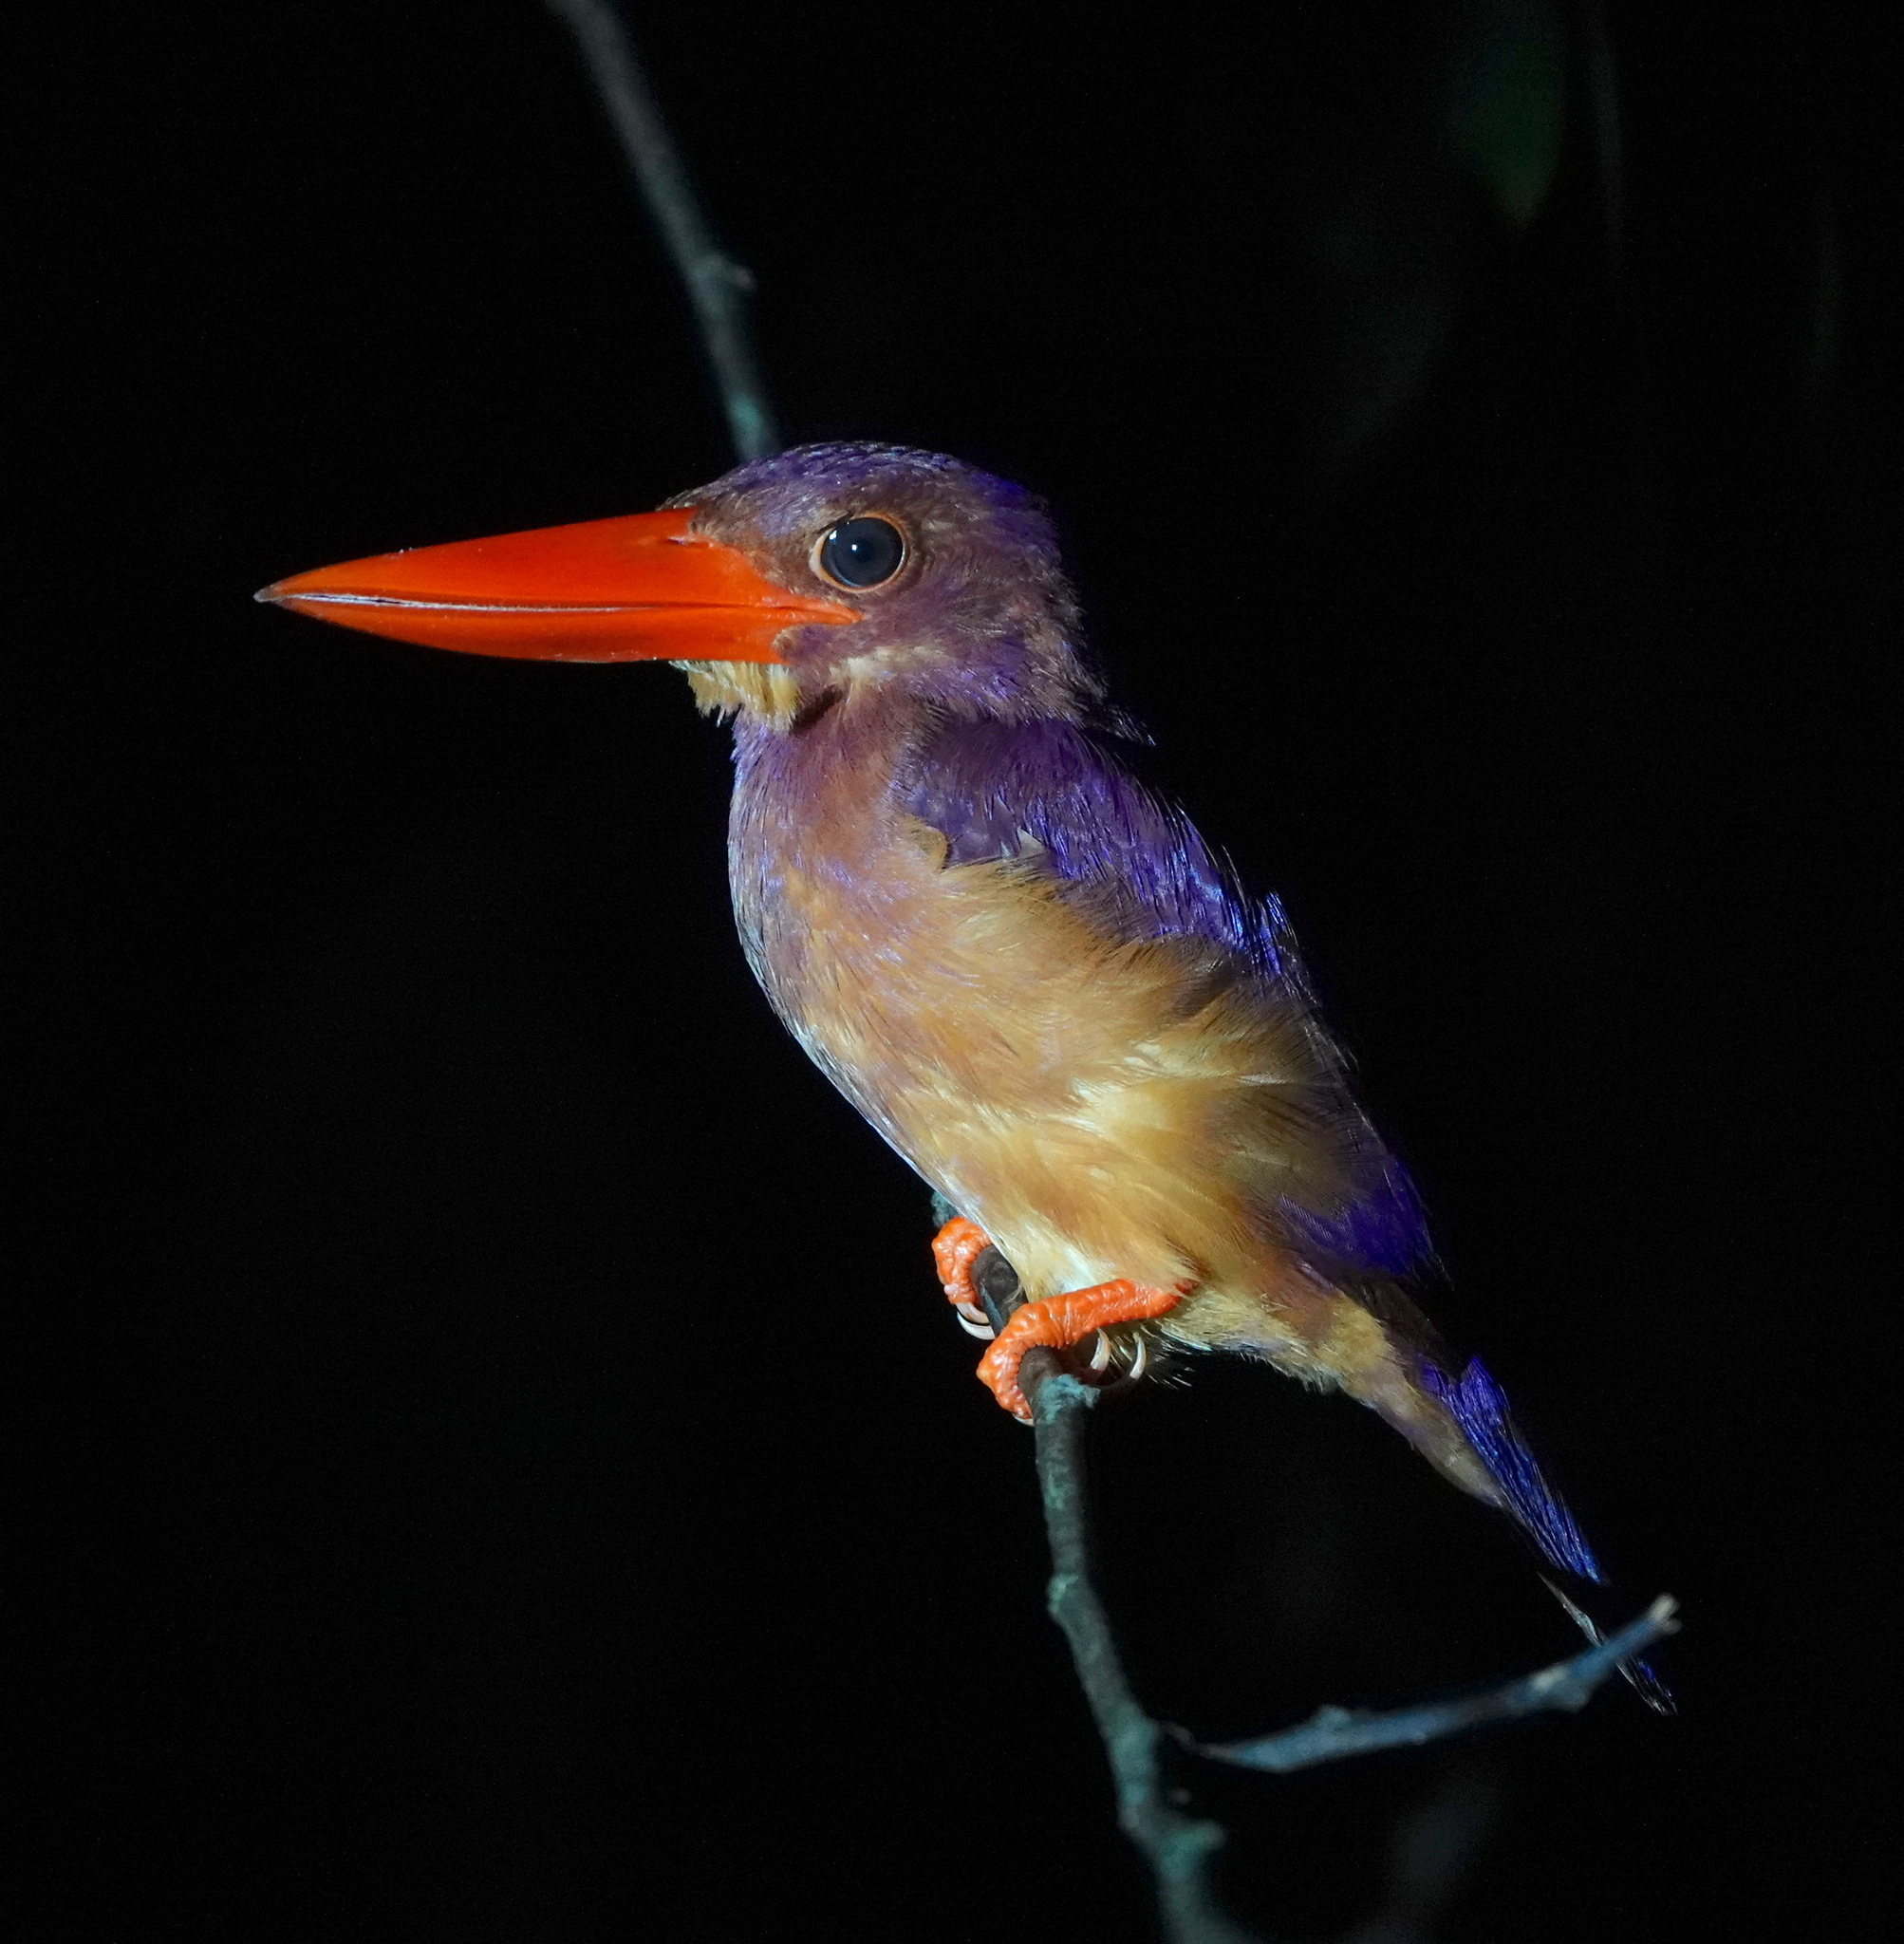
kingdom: Animalia
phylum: Chordata
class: Aves
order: Coraciiformes
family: Alcedinidae
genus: Halcyon
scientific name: Halcyon coromanda
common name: Ruddy kingfisher
